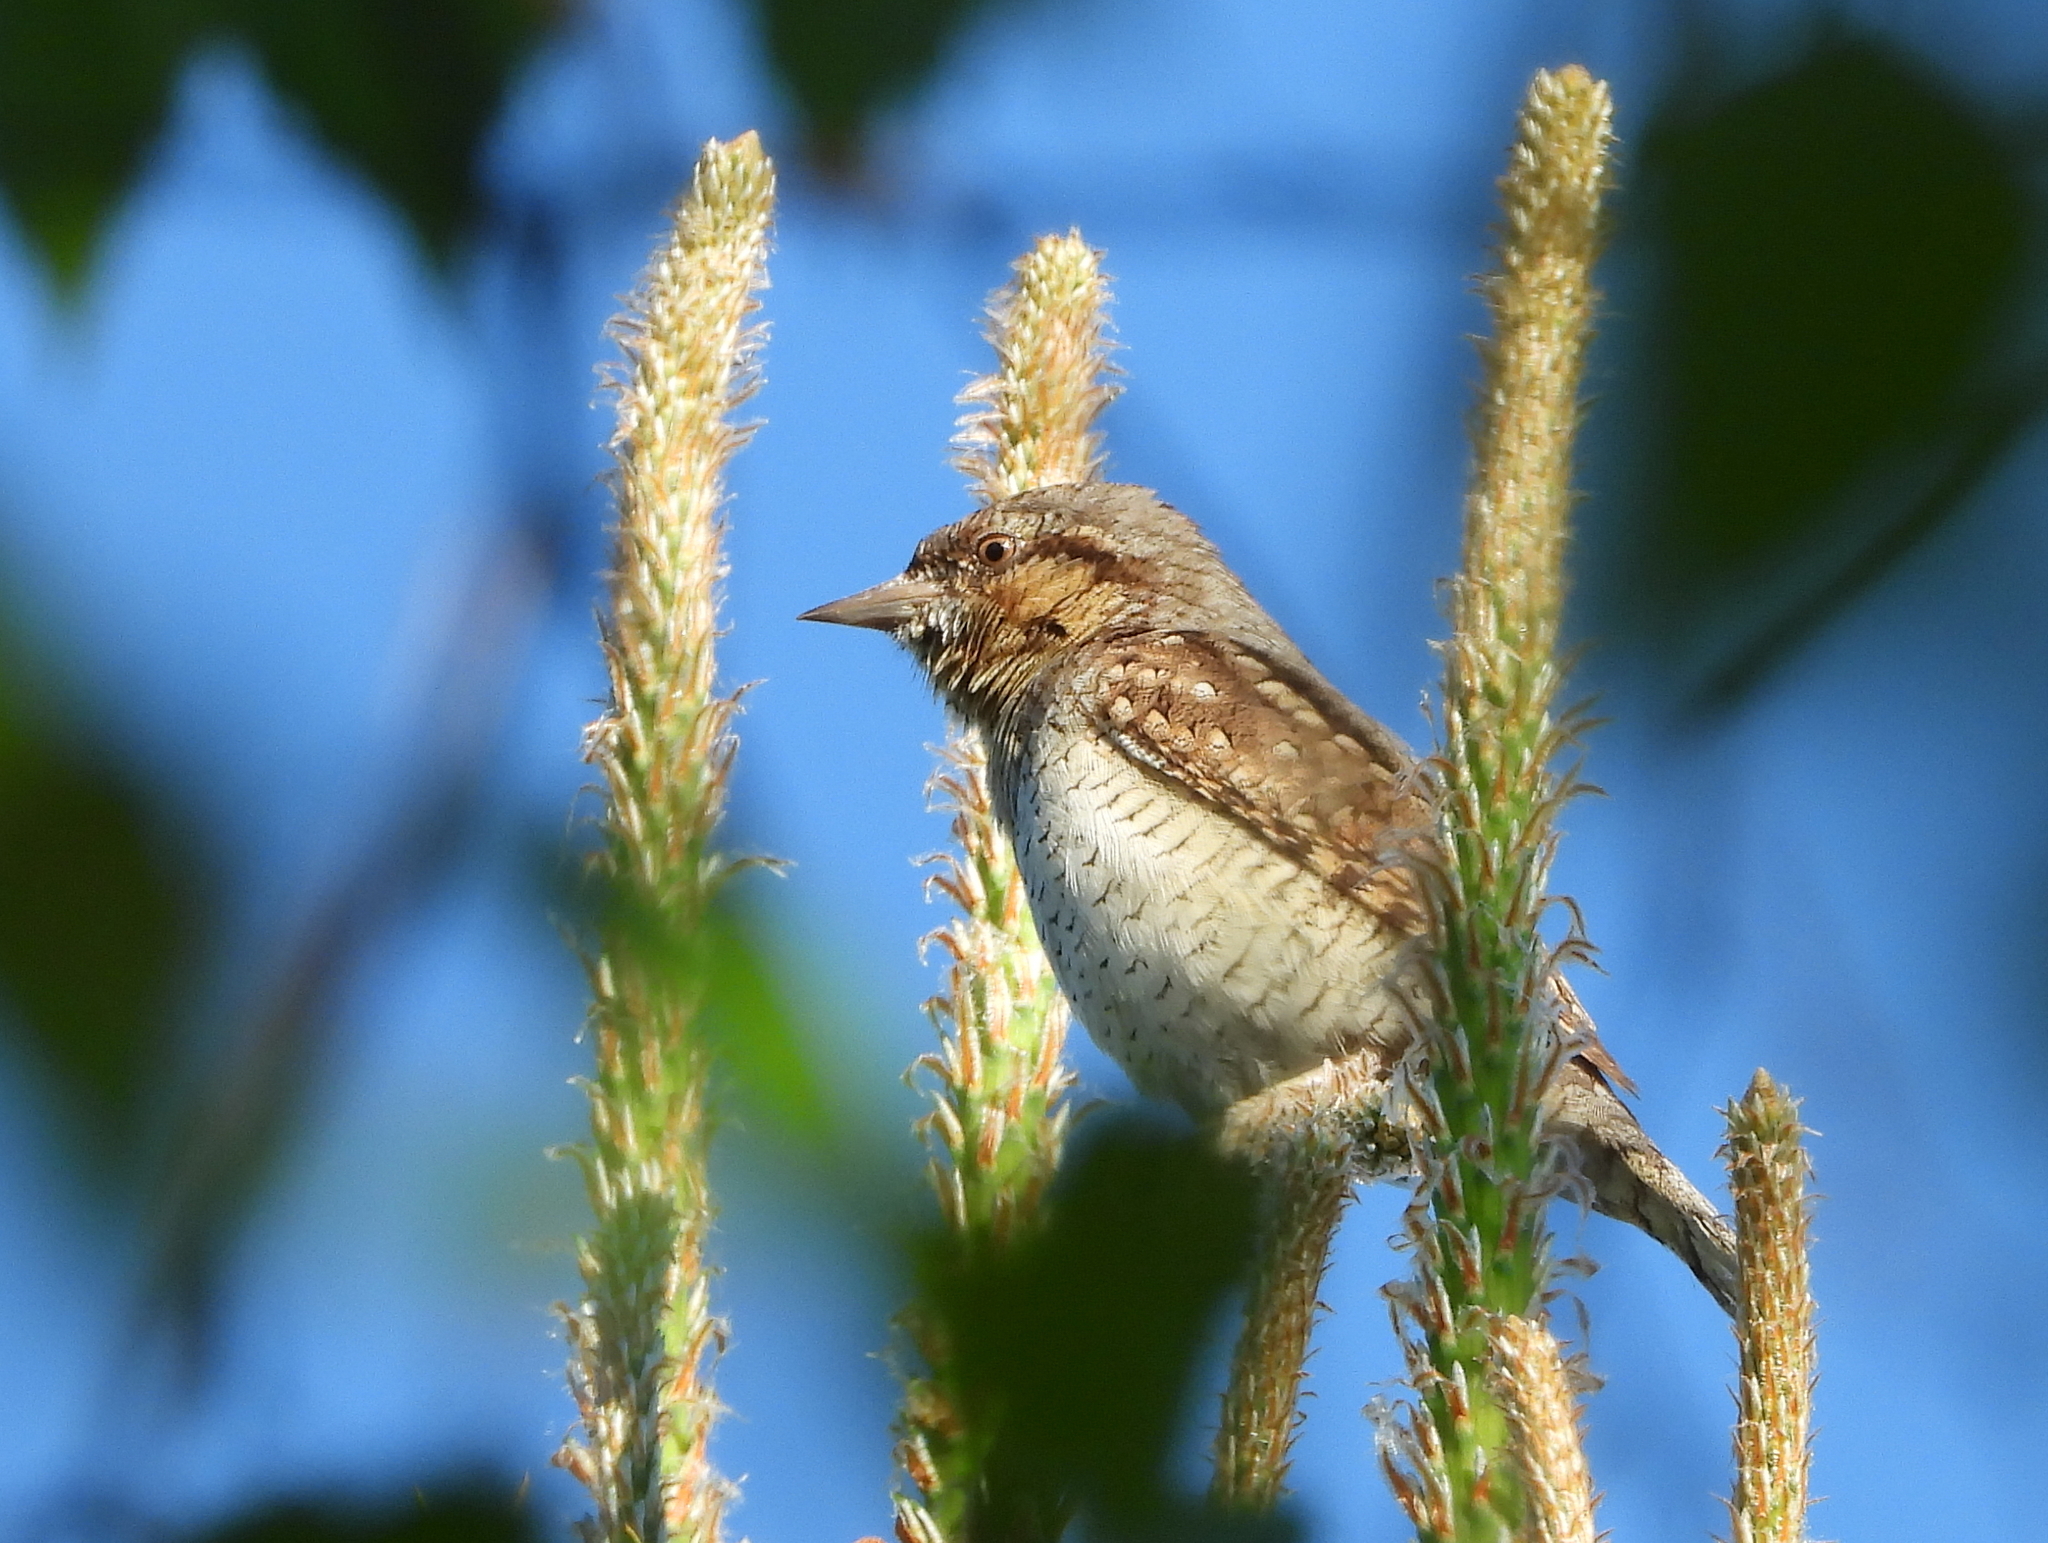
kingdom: Animalia
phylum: Chordata
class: Aves
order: Piciformes
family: Picidae
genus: Jynx
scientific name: Jynx torquilla
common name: Eurasian wryneck
